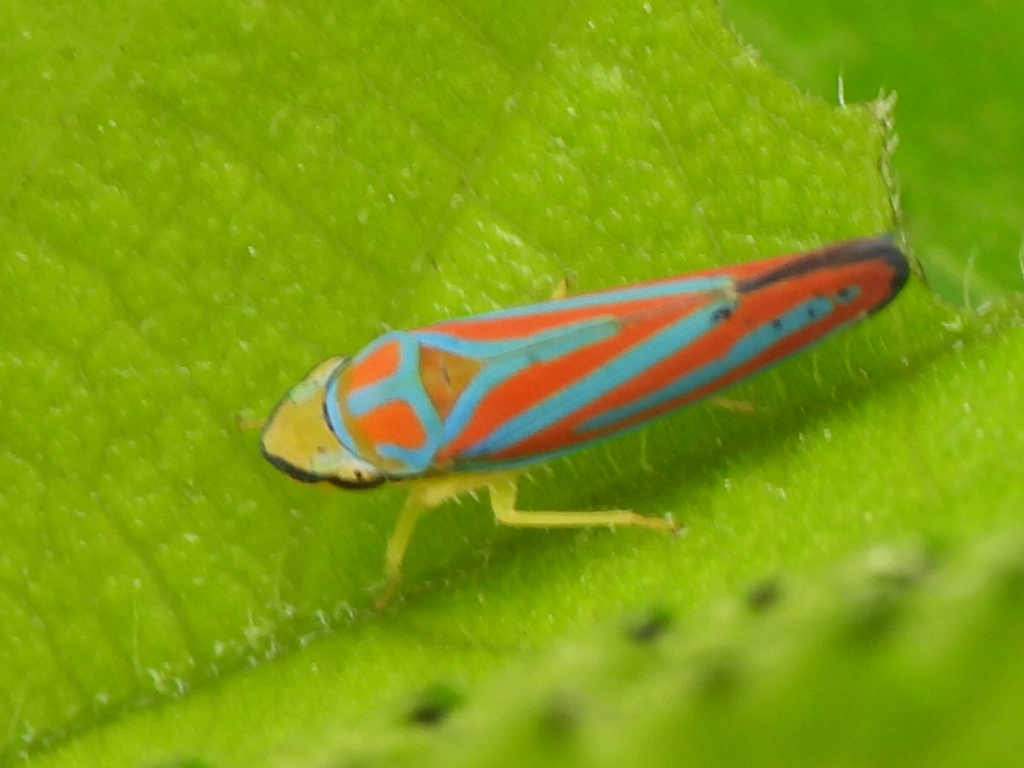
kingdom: Animalia
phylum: Arthropoda
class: Insecta
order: Hemiptera
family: Cicadellidae
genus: Graphocephala
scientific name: Graphocephala coccinea
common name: Candy-striped leafhopper
